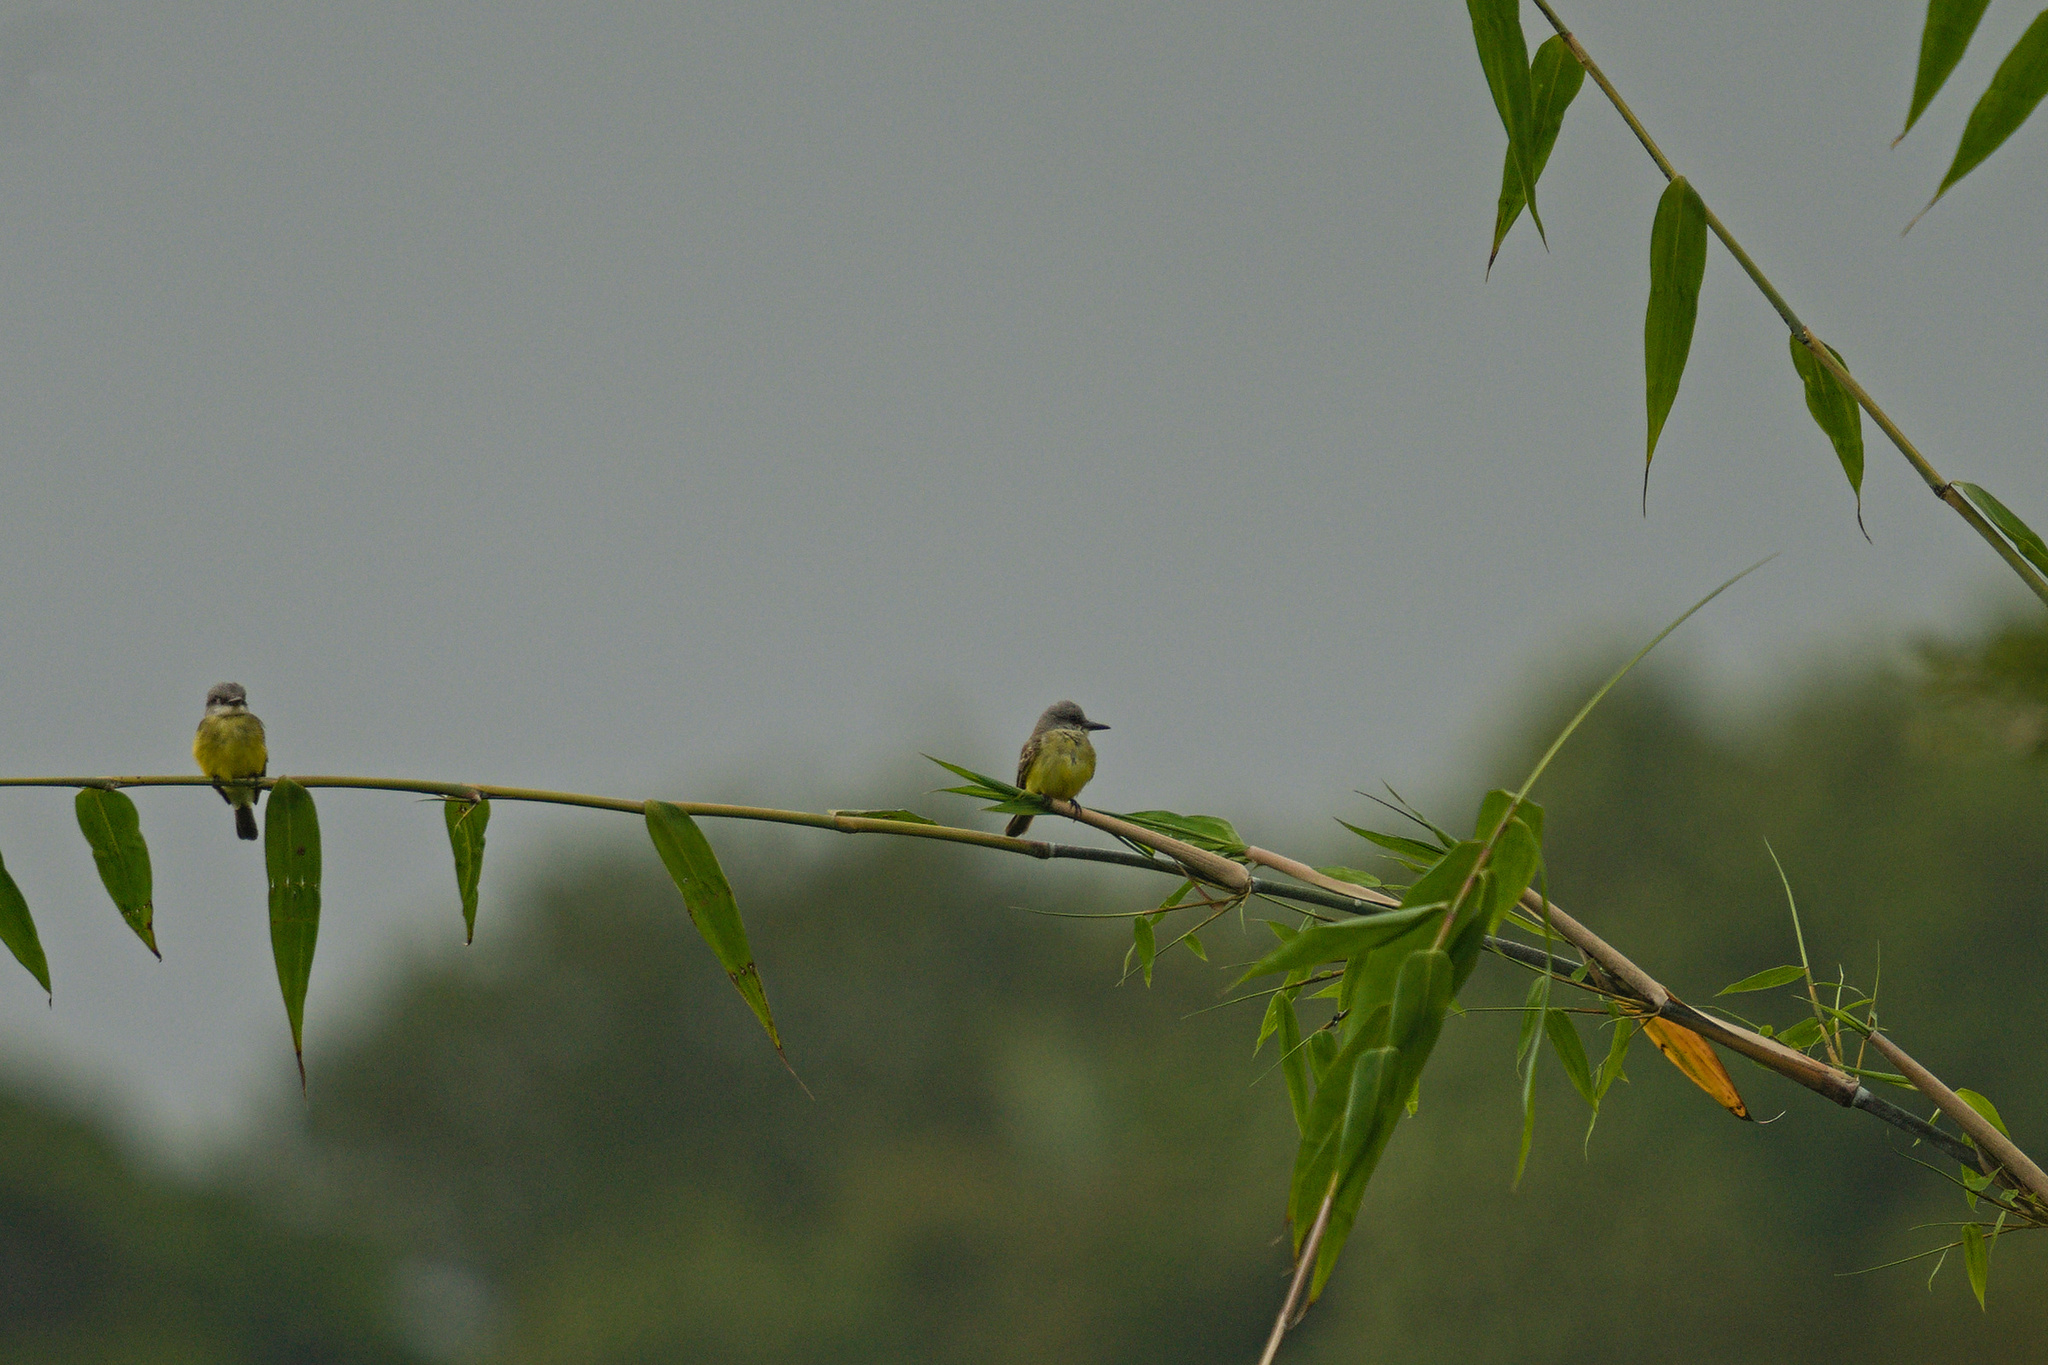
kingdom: Animalia
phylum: Chordata
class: Aves
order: Passeriformes
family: Tyrannidae
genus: Tyrannus
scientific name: Tyrannus melancholicus
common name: Tropical kingbird
